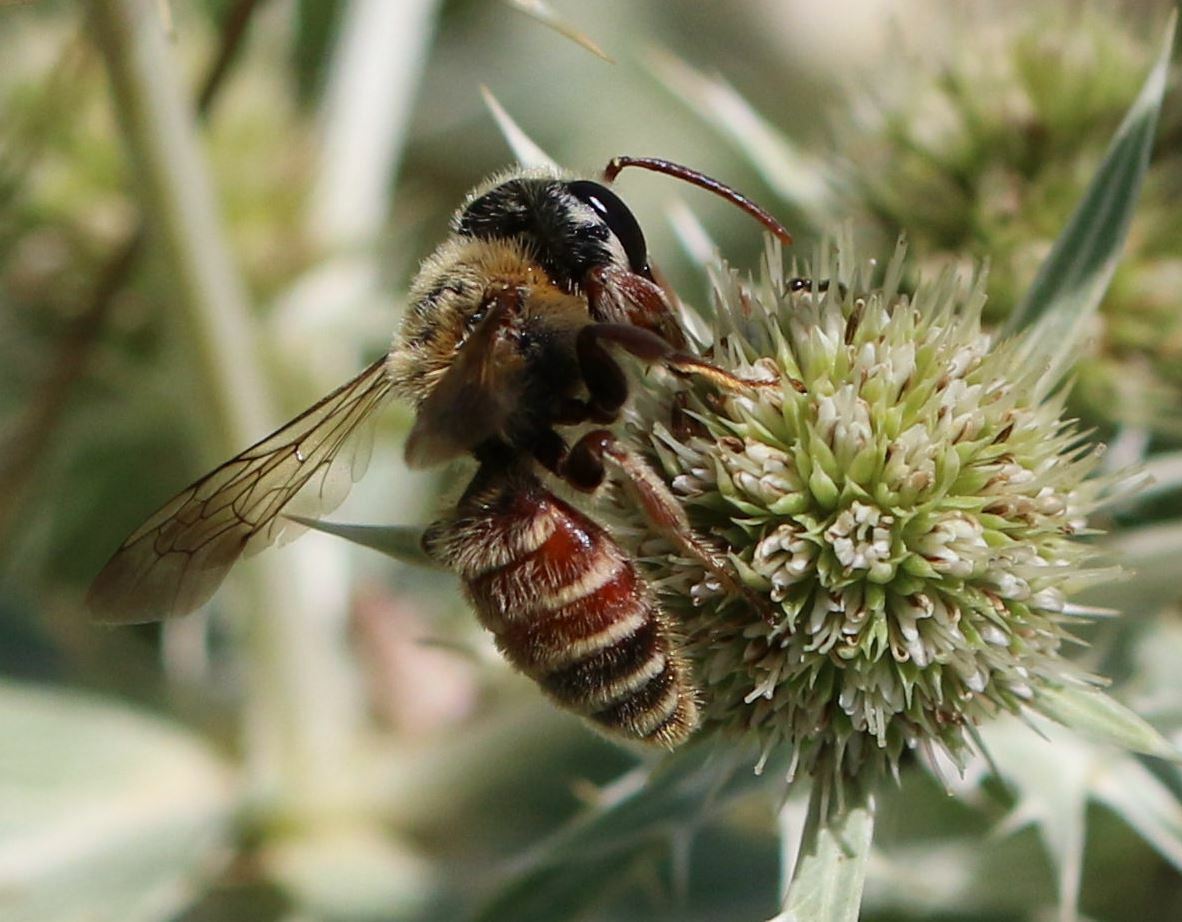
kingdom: Animalia
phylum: Arthropoda
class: Insecta
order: Hymenoptera
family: Andrenidae
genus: Andrena
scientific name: Andrena variabilis
